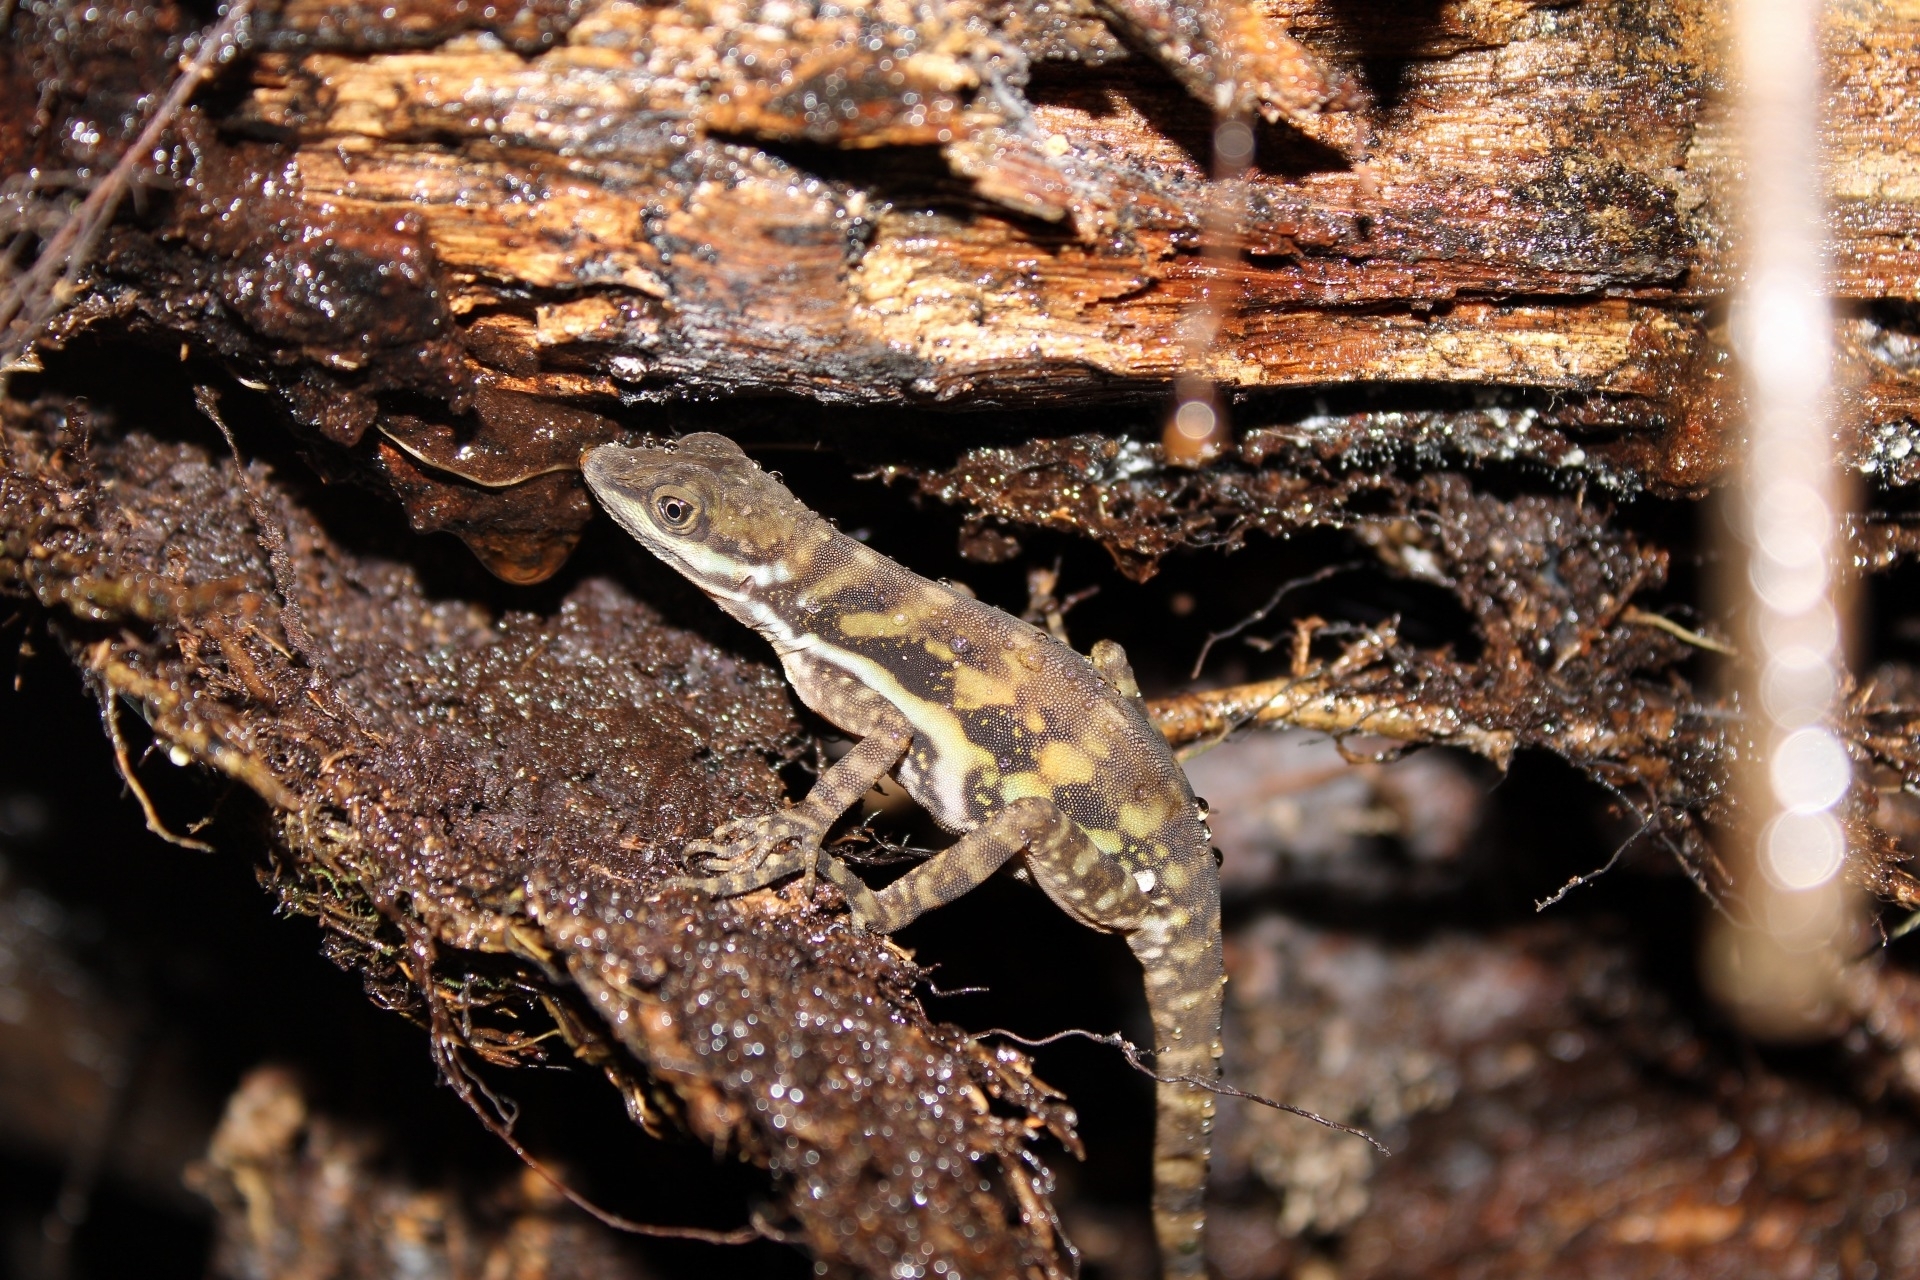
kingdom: Animalia
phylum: Chordata
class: Squamata
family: Dactyloidae
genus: Anolis
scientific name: Anolis aquaticus
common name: Aquatic anole
